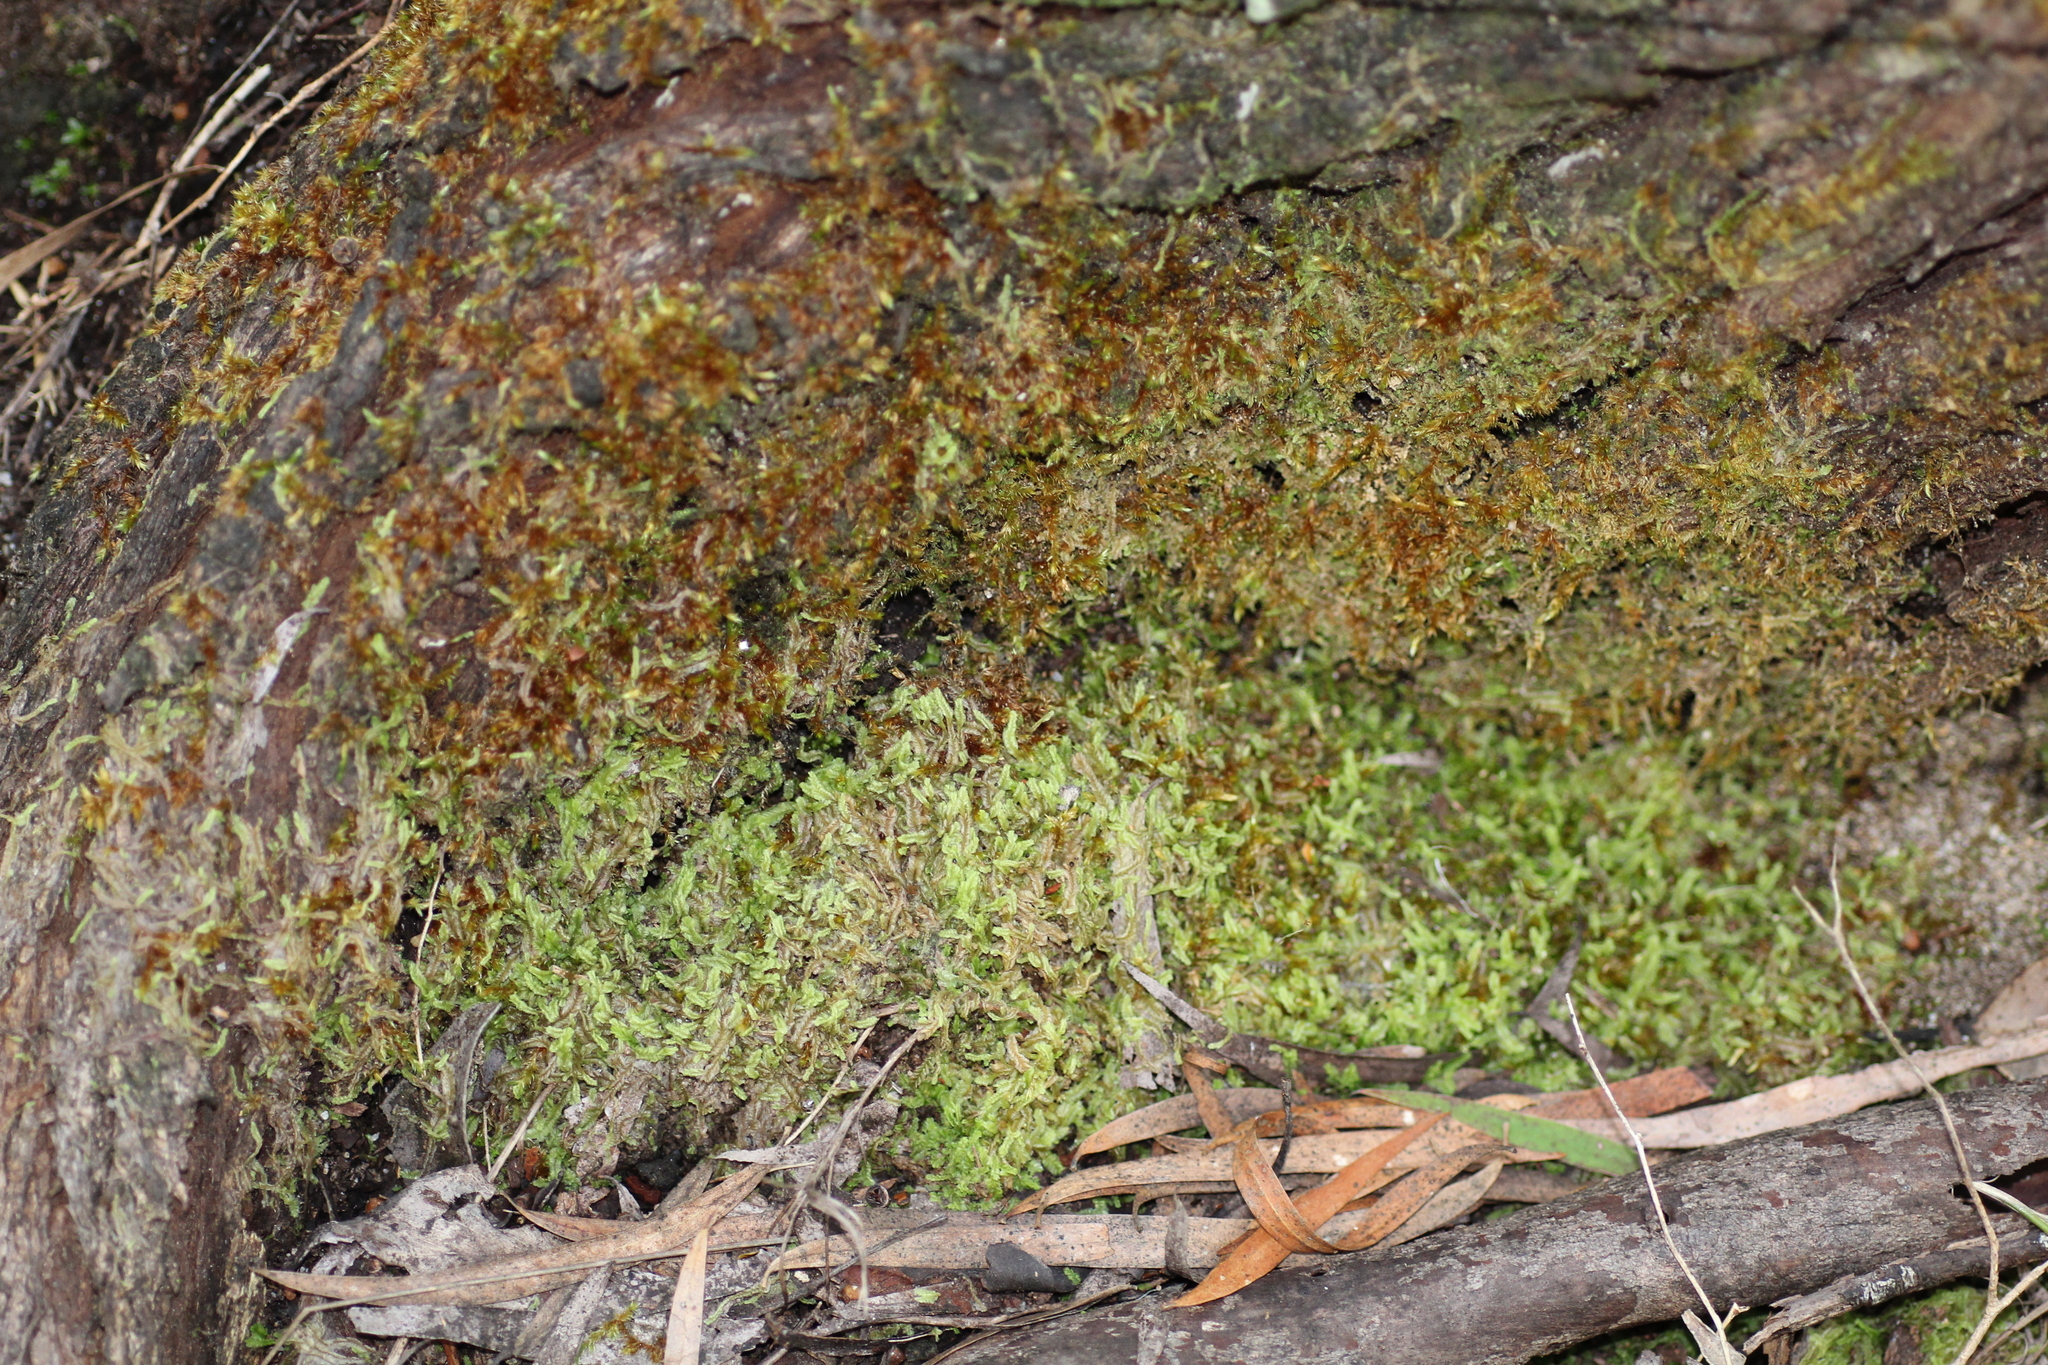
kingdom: Plantae
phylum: Marchantiophyta
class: Jungermanniopsida
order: Jungermanniales
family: Lophocoleaceae
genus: Lophocolea
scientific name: Lophocolea semiteres
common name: Southern crestwort
